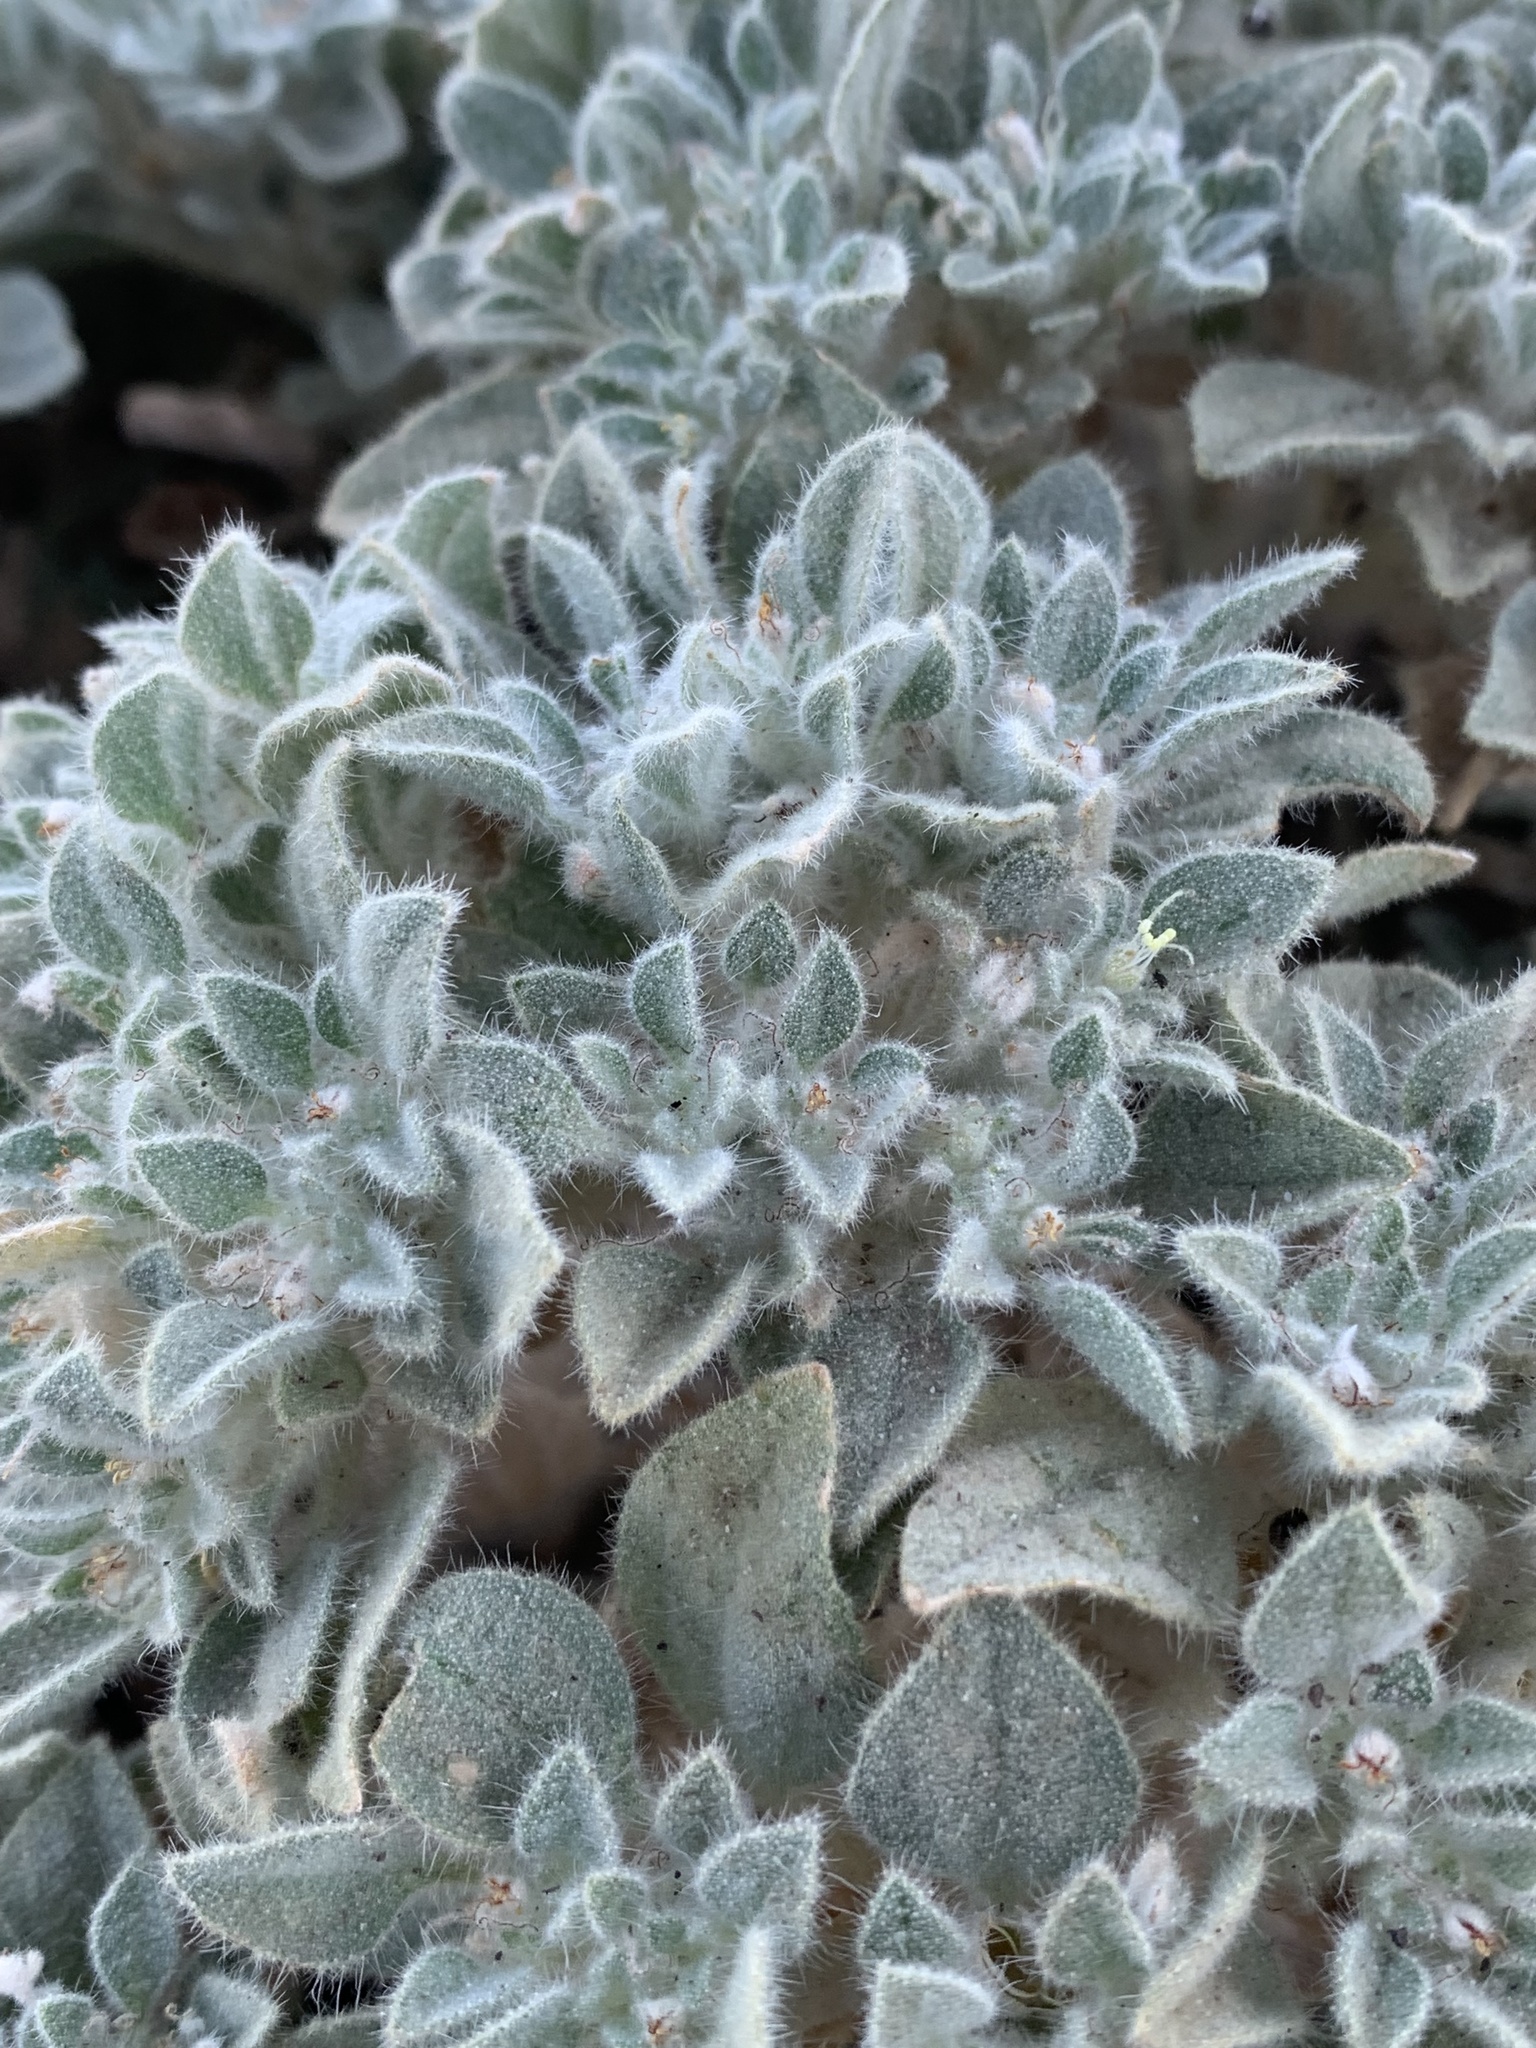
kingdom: Plantae
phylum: Tracheophyta
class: Magnoliopsida
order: Malpighiales
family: Euphorbiaceae
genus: Croton
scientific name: Croton setiger
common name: Dove weed
